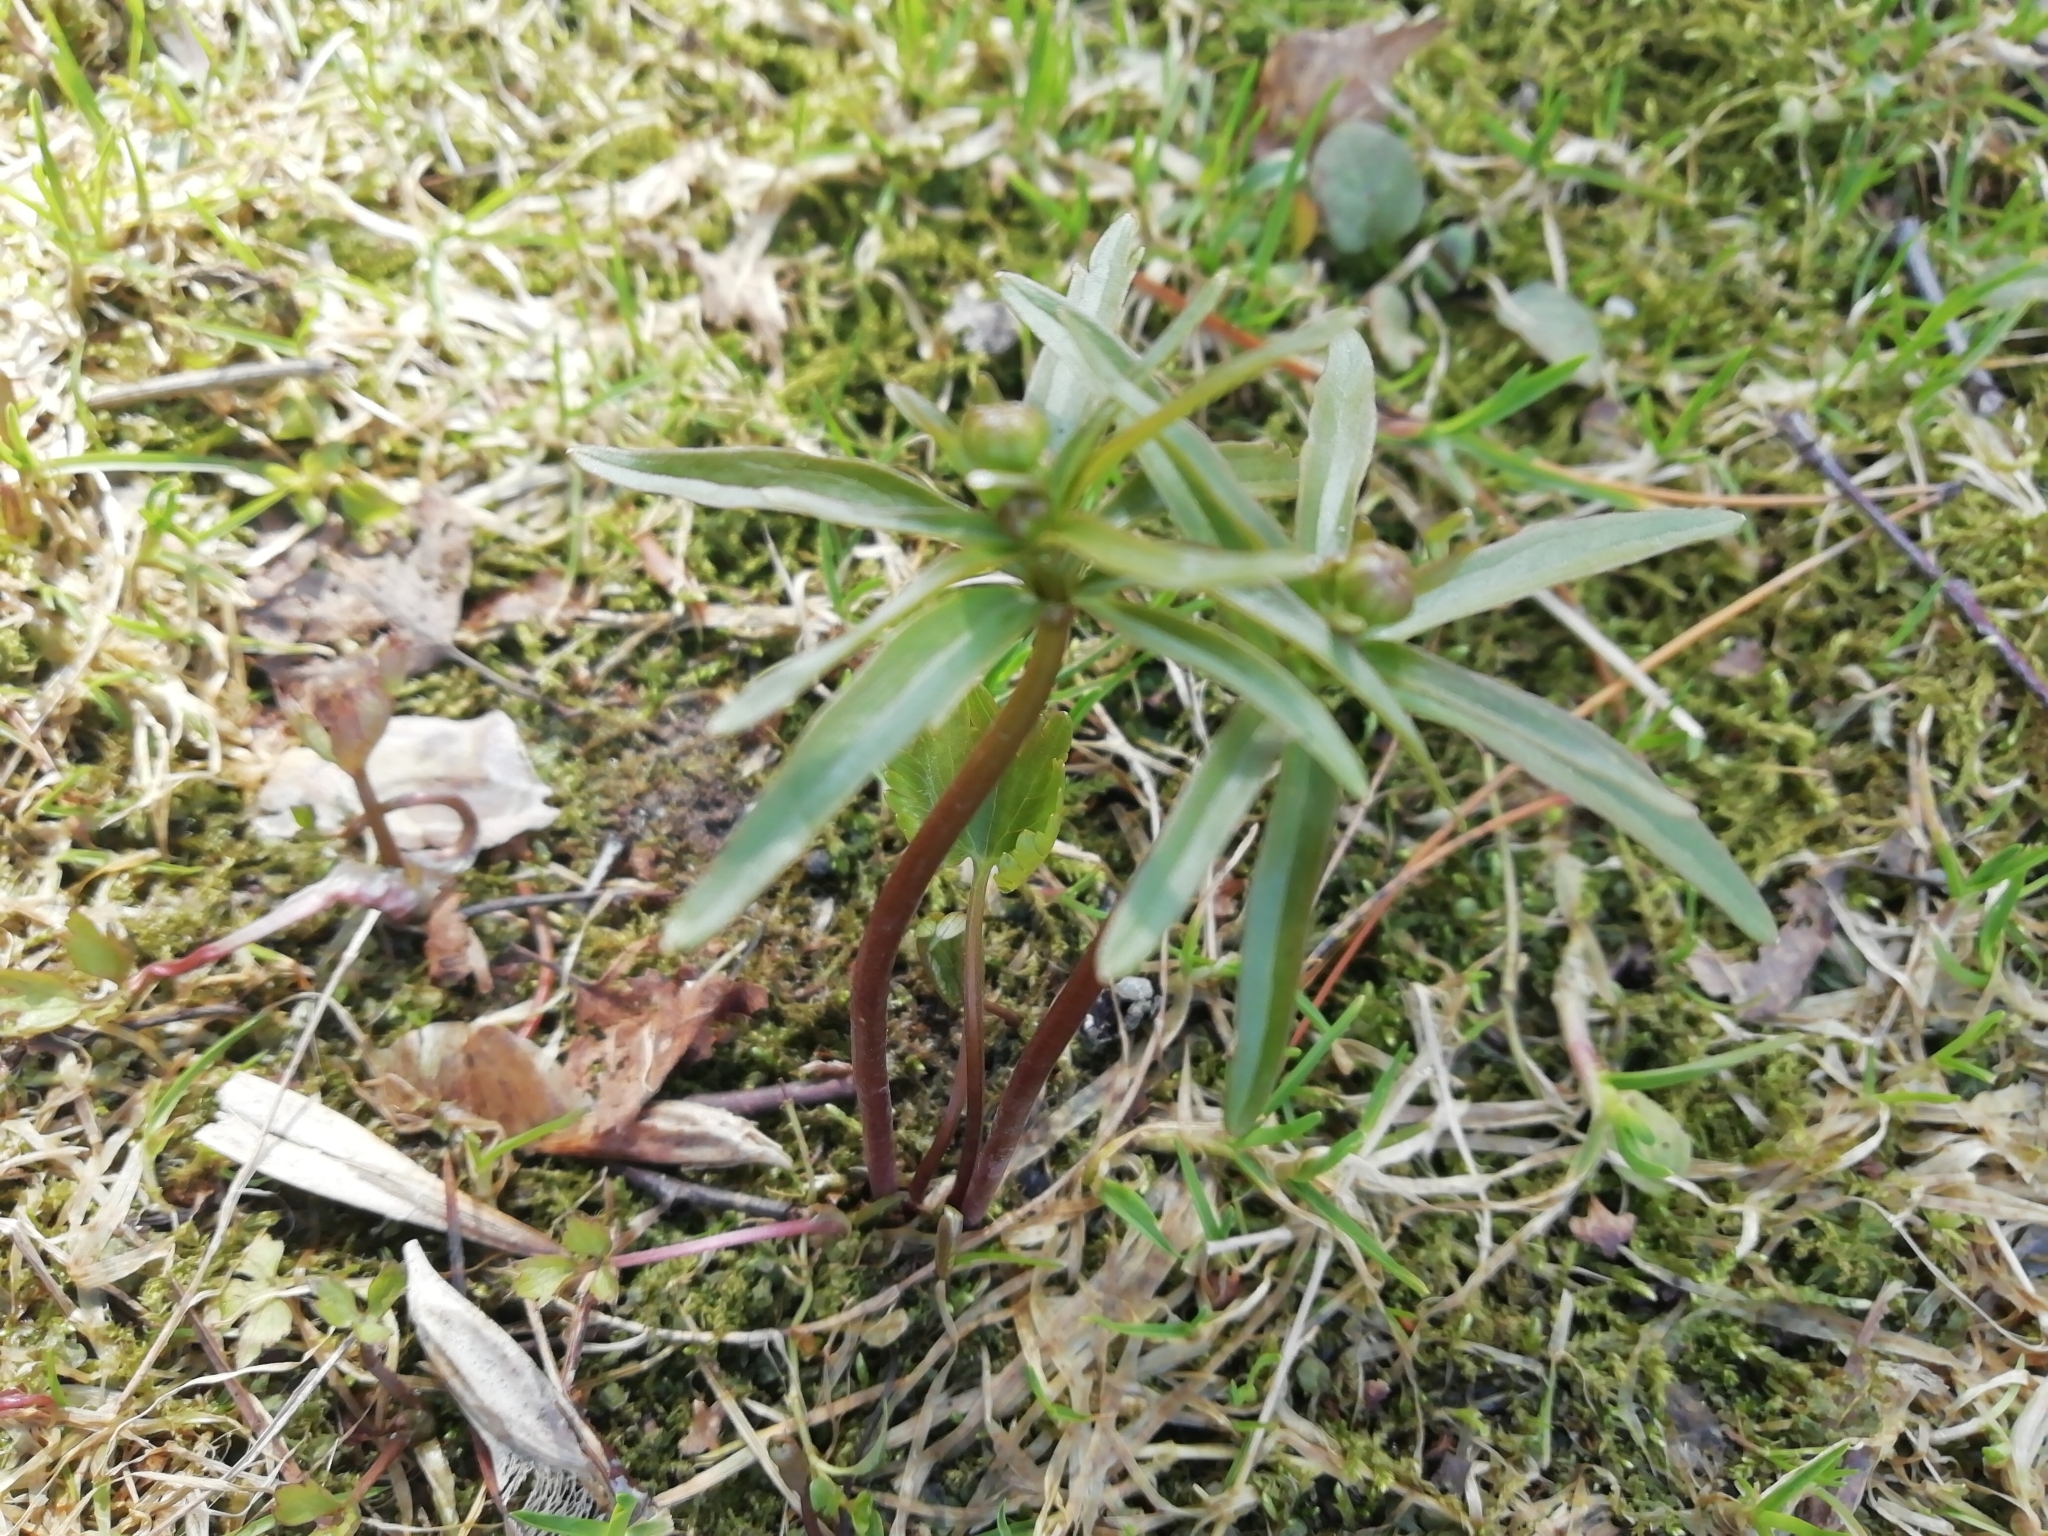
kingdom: Plantae
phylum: Tracheophyta
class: Magnoliopsida
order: Ranunculales
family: Ranunculaceae
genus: Ranunculus
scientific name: Ranunculus monophyllus
